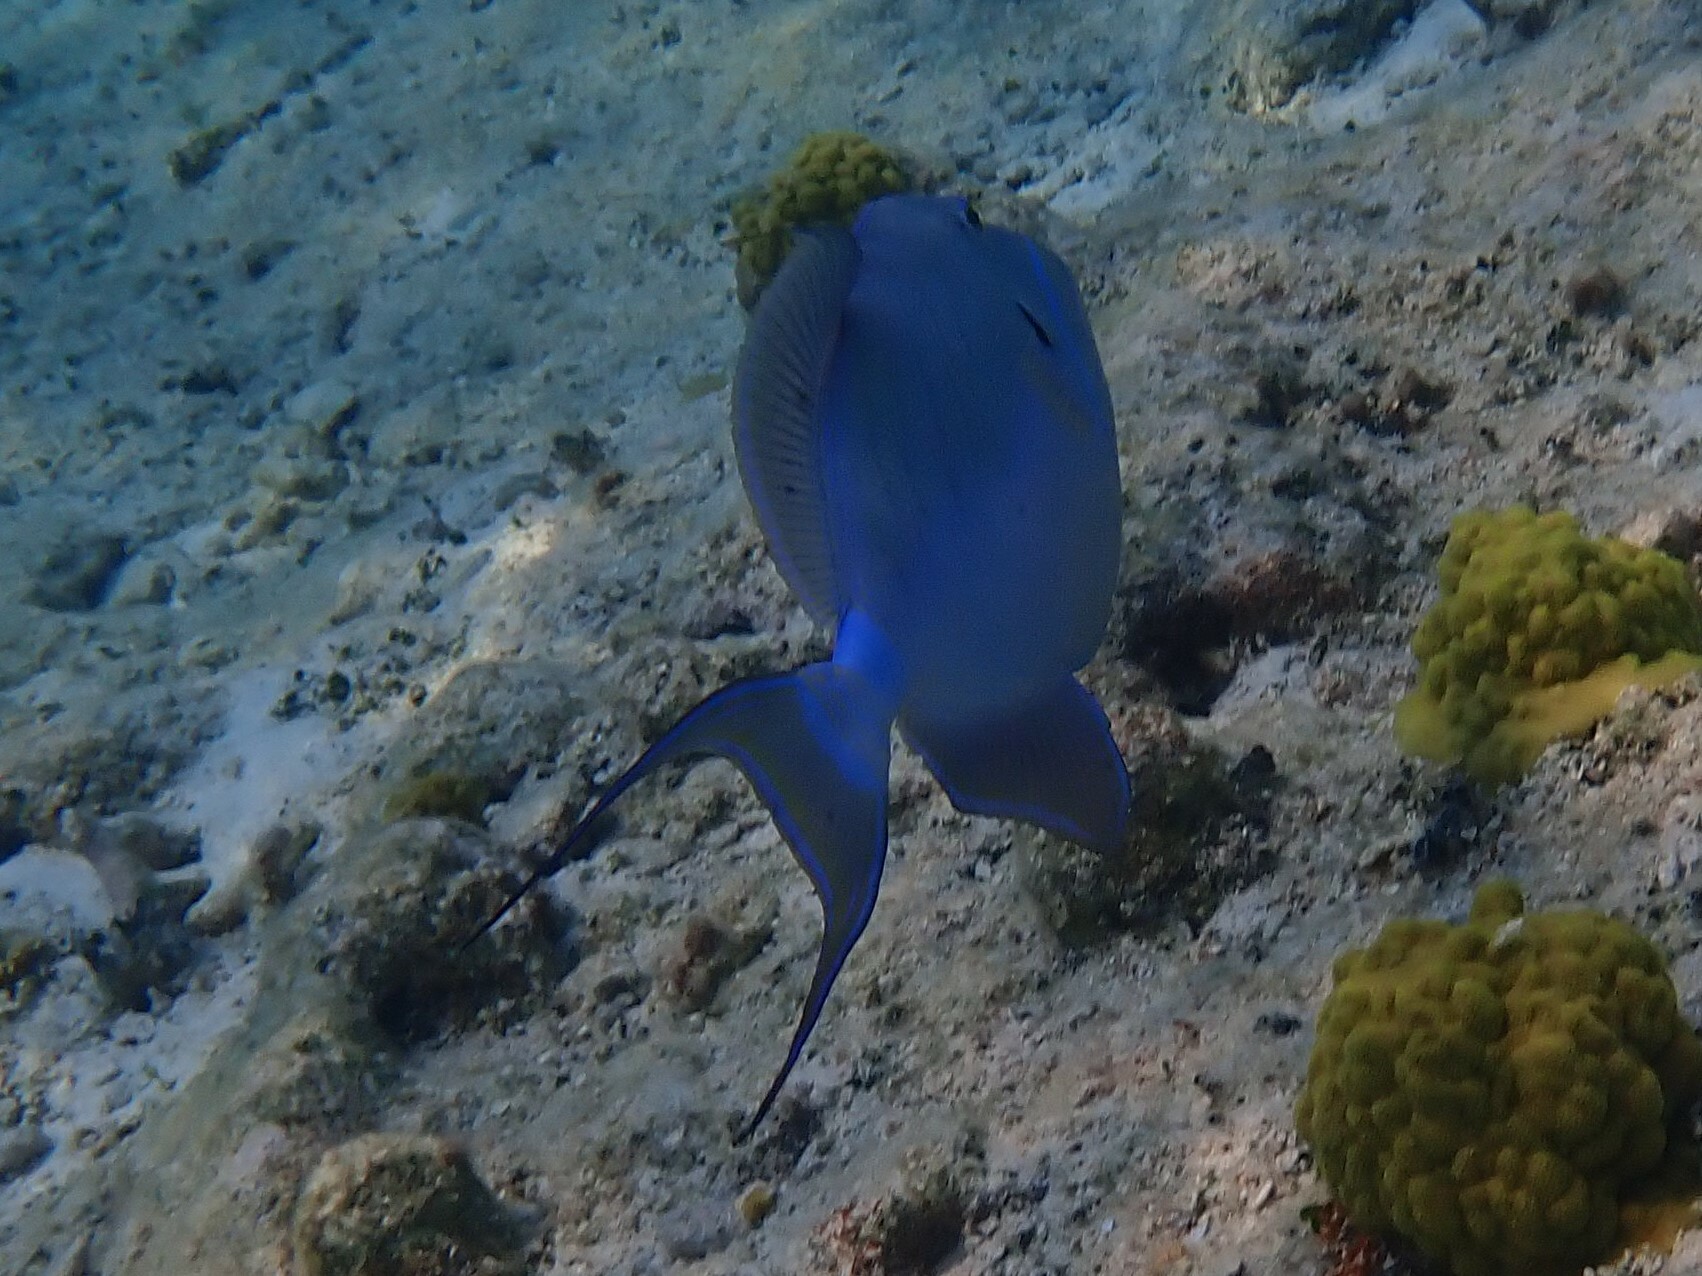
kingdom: Animalia
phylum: Chordata
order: Tetraodontiformes
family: Balistidae
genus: Balistes
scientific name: Balistes vetula
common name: Queen triggerfish
